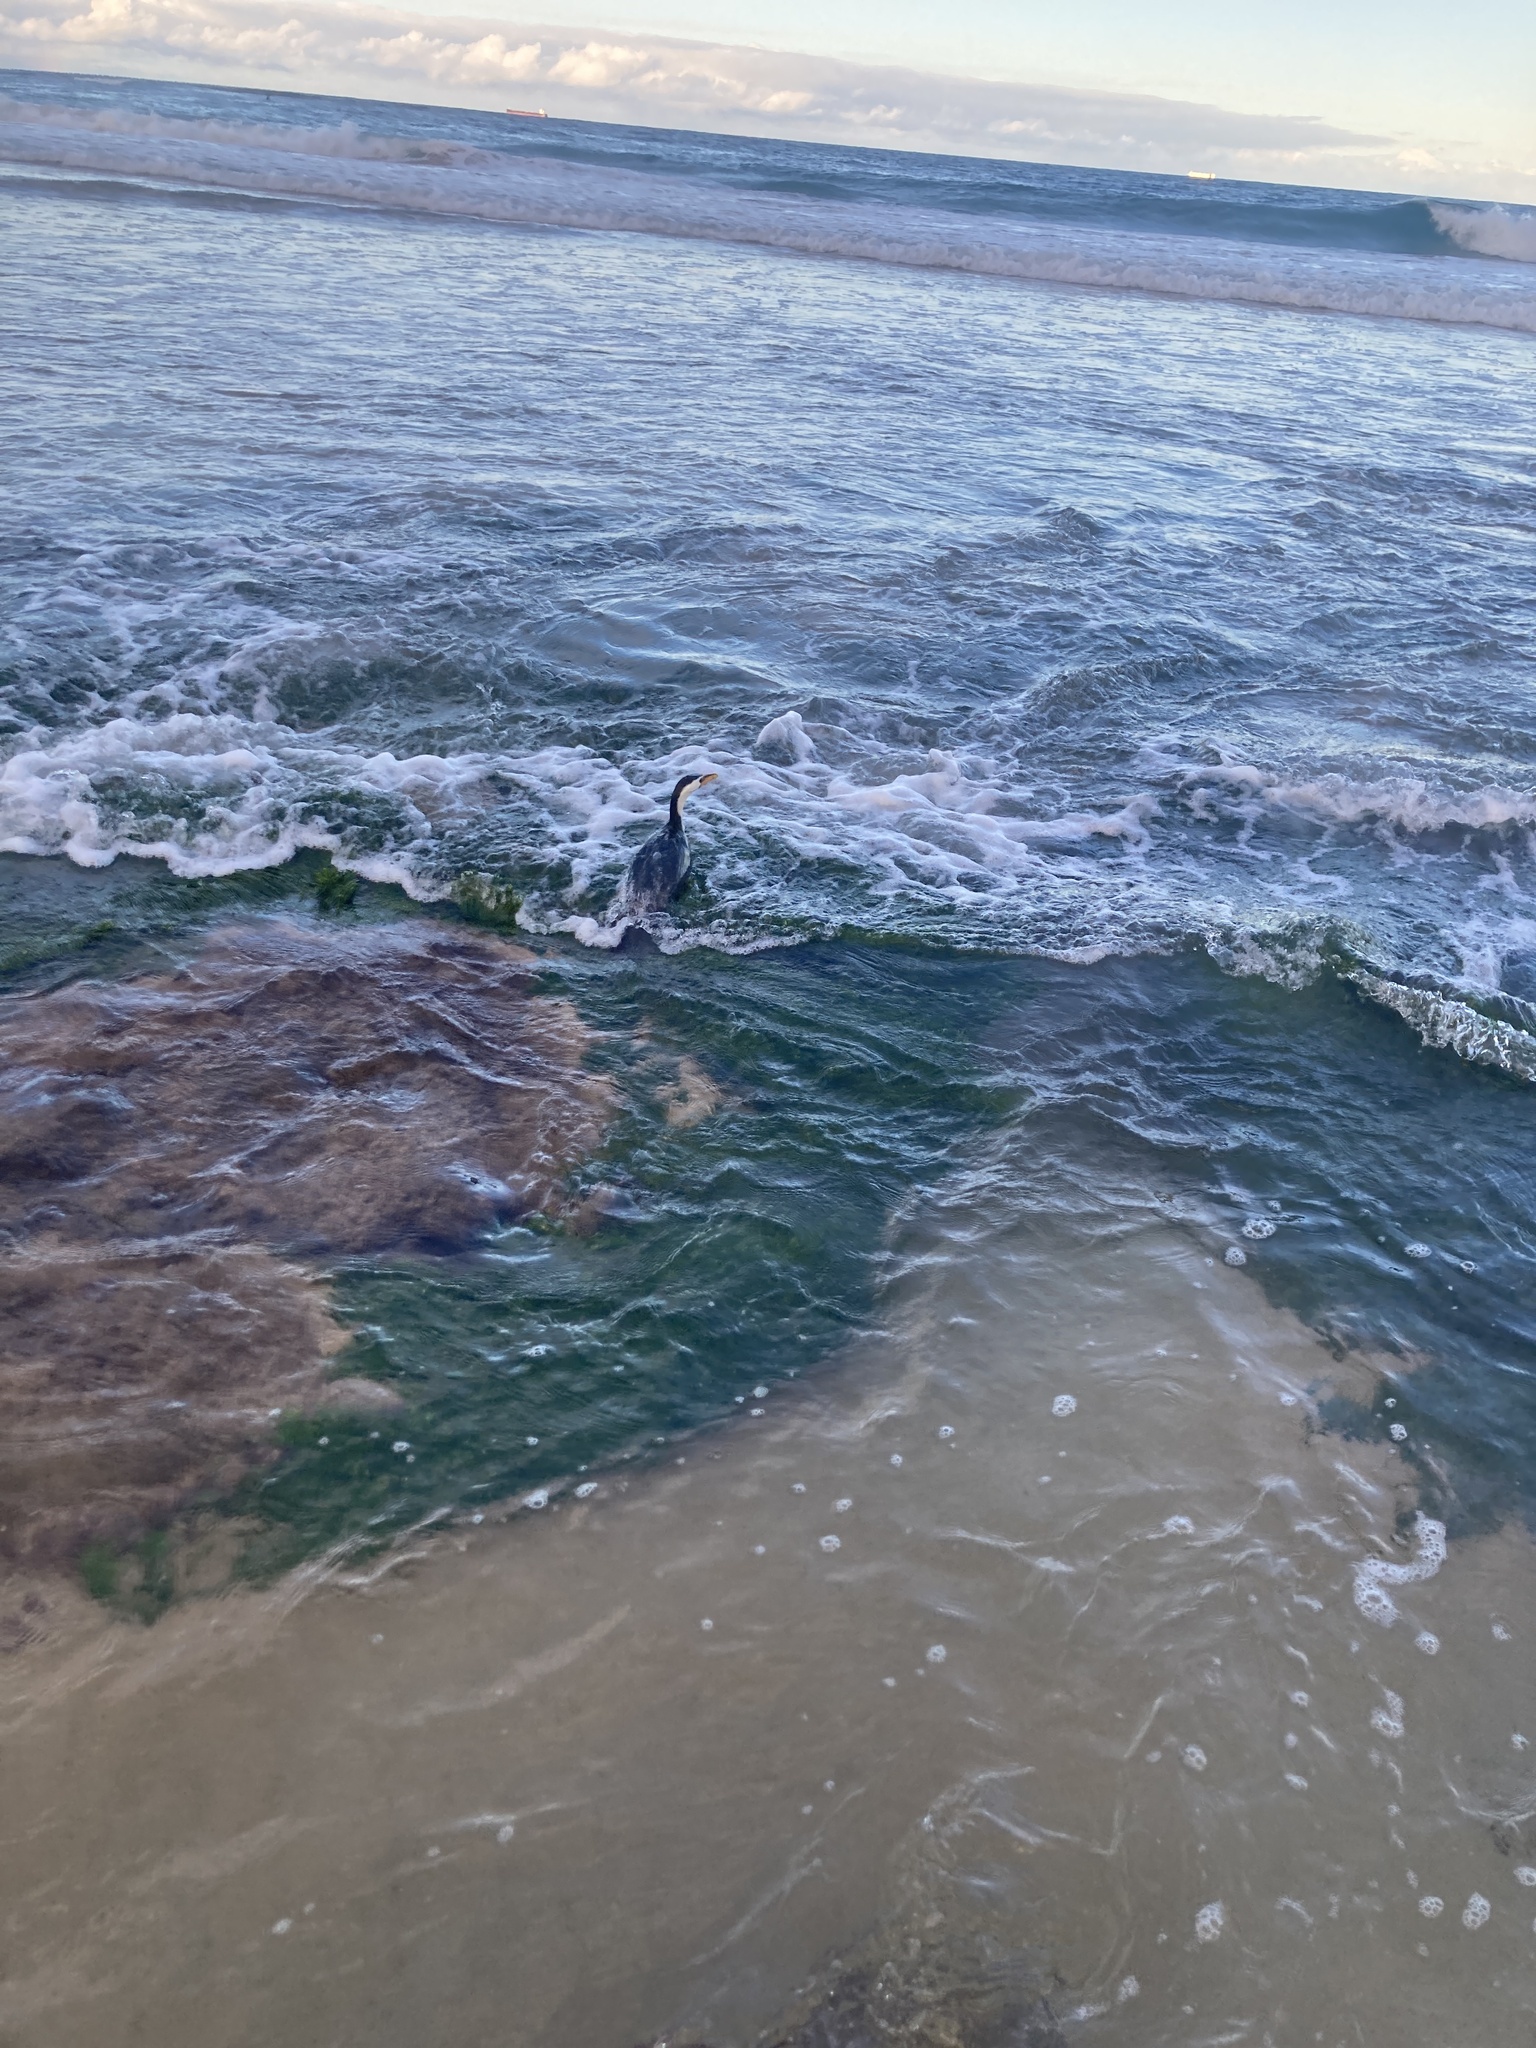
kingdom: Animalia
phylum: Chordata
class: Aves
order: Suliformes
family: Phalacrocoracidae
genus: Microcarbo
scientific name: Microcarbo melanoleucos
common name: Little pied cormorant
